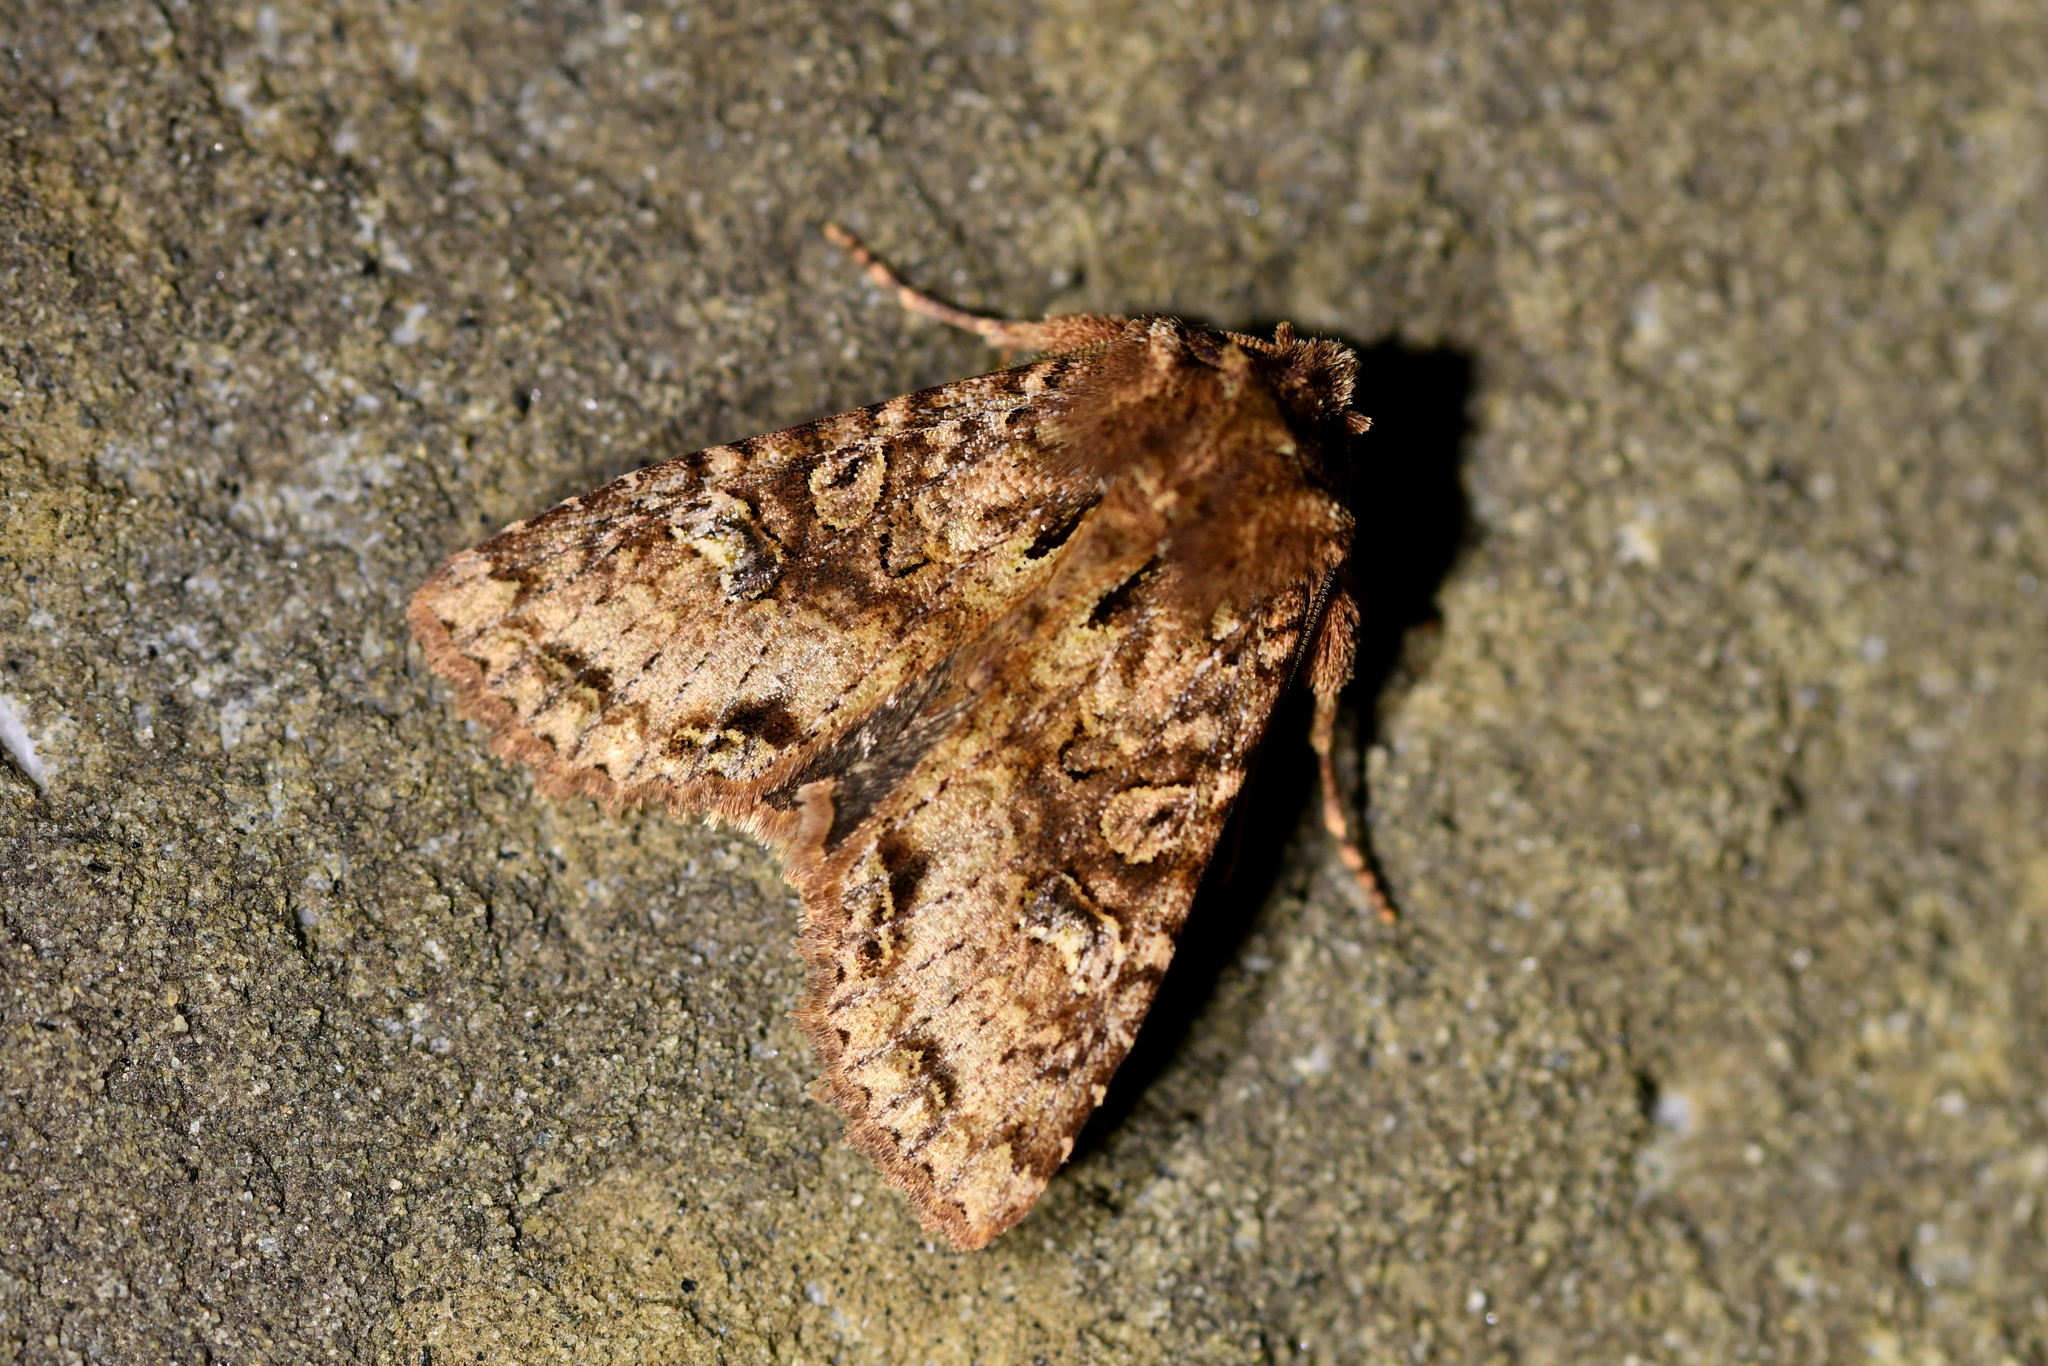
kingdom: Animalia
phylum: Arthropoda
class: Insecta
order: Lepidoptera
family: Noctuidae
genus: Meterana
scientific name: Meterana
